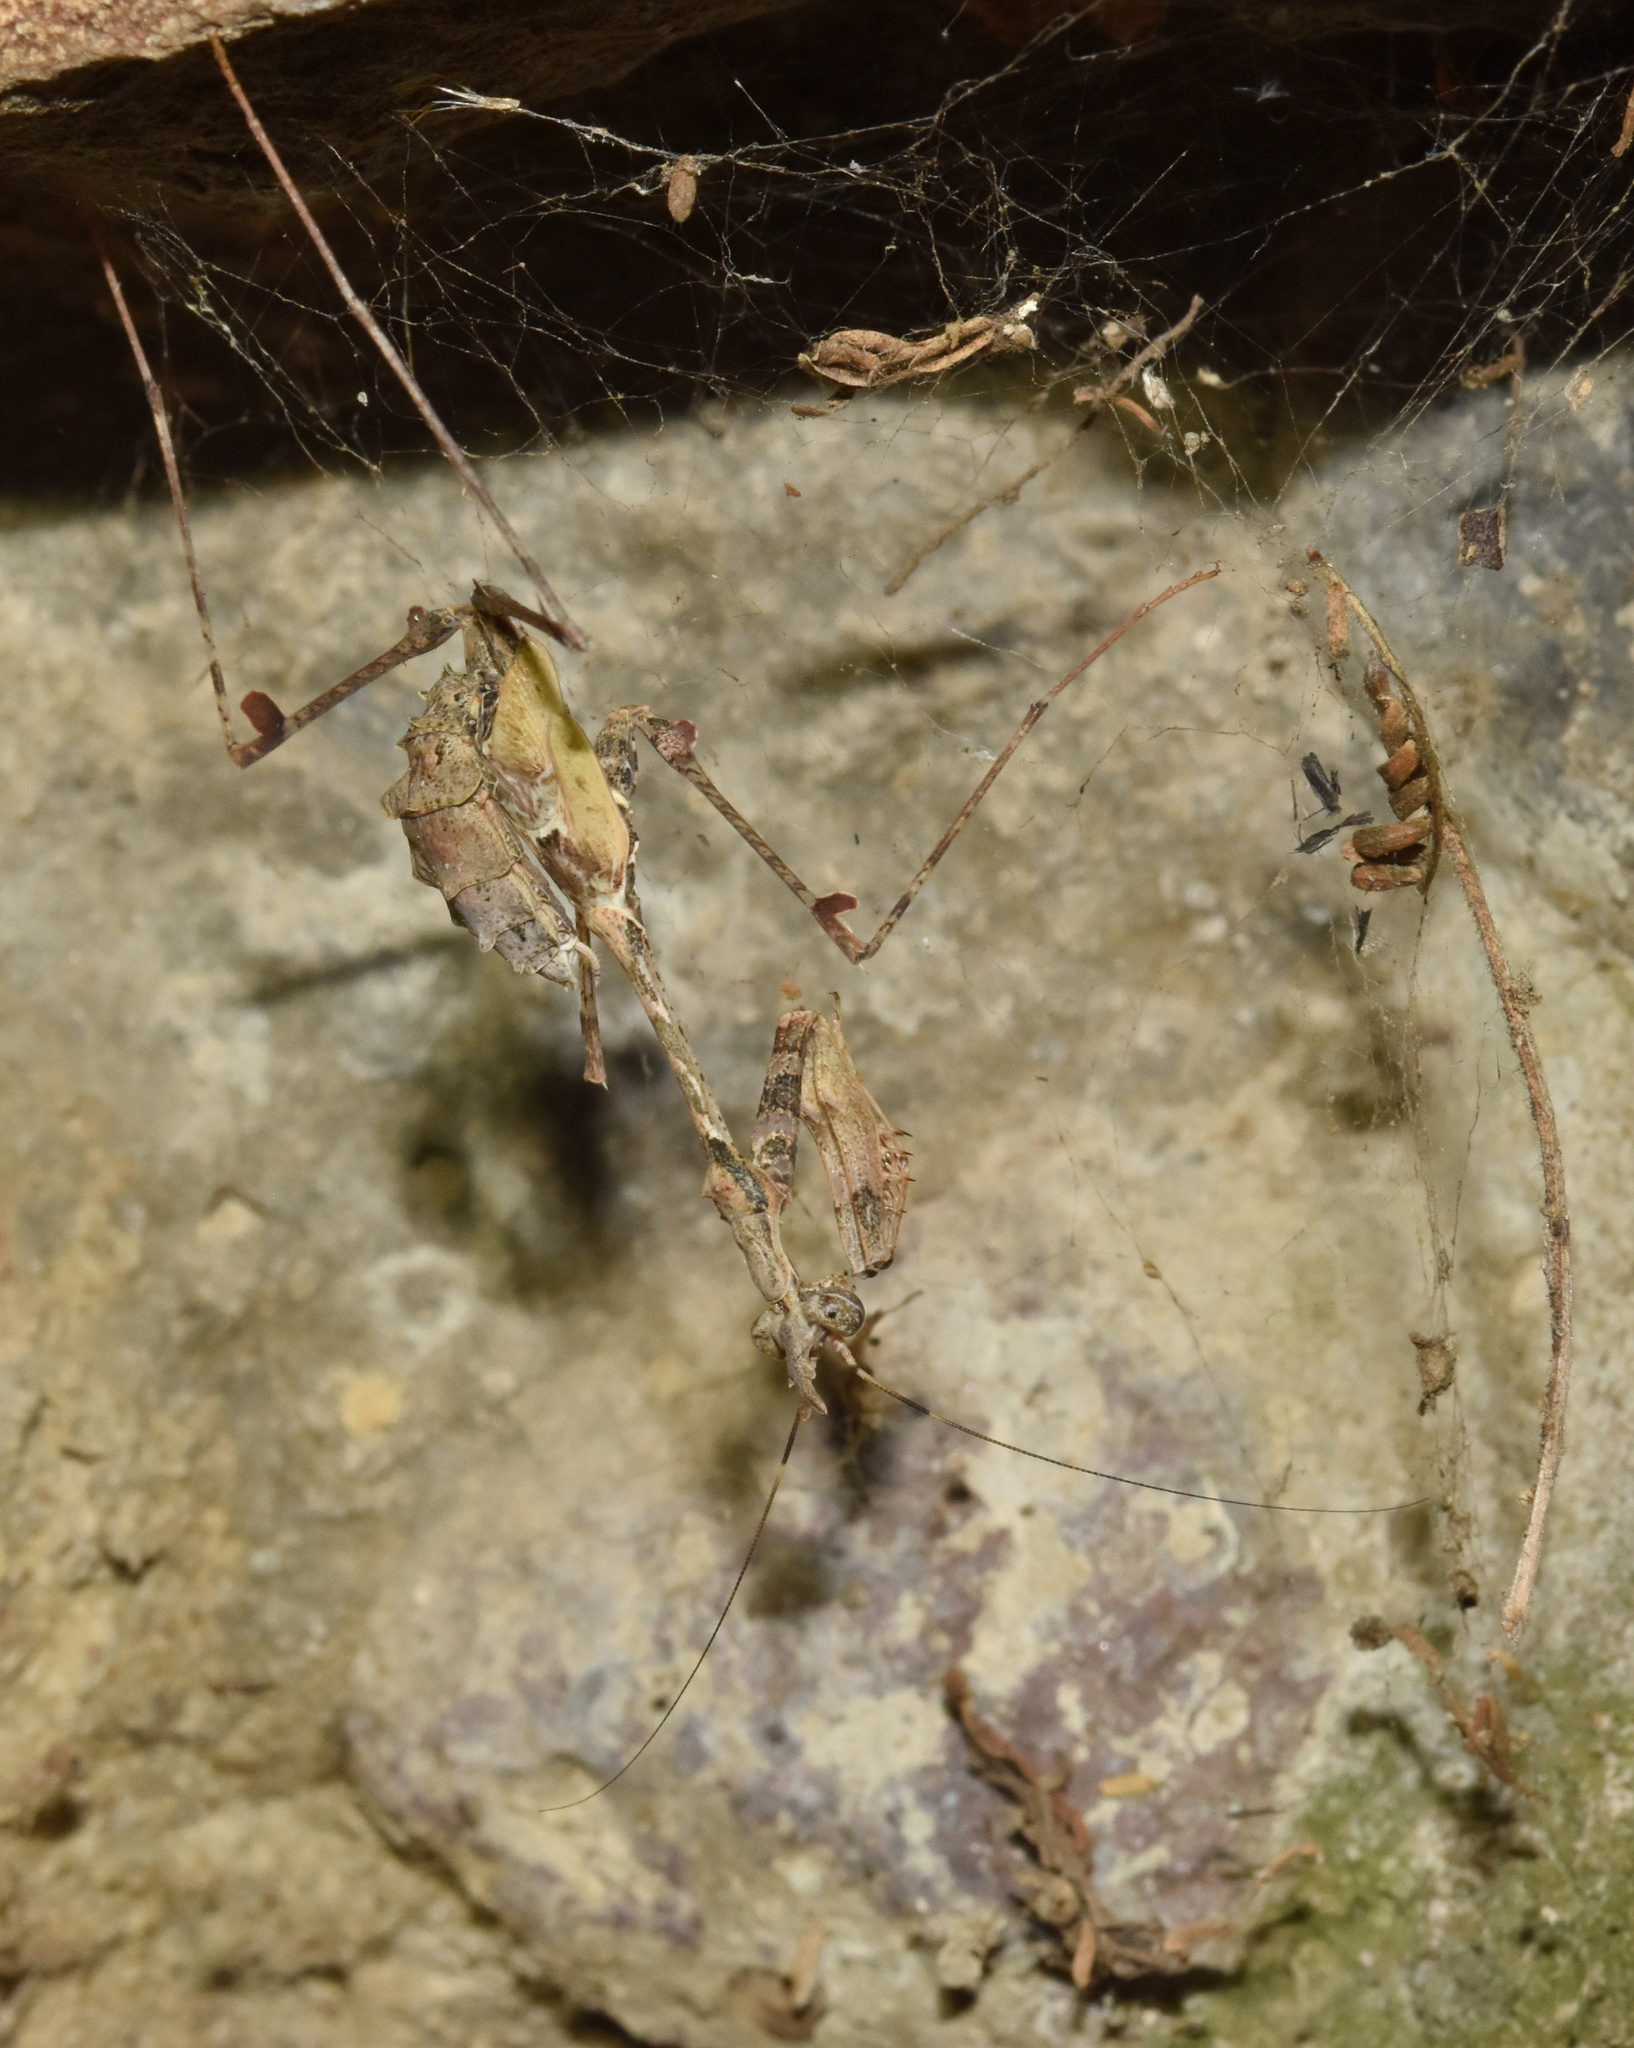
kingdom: Animalia
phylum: Arthropoda
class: Insecta
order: Mantodea
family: Hymenopodidae
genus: Sibylla
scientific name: Sibylla pretiosa
